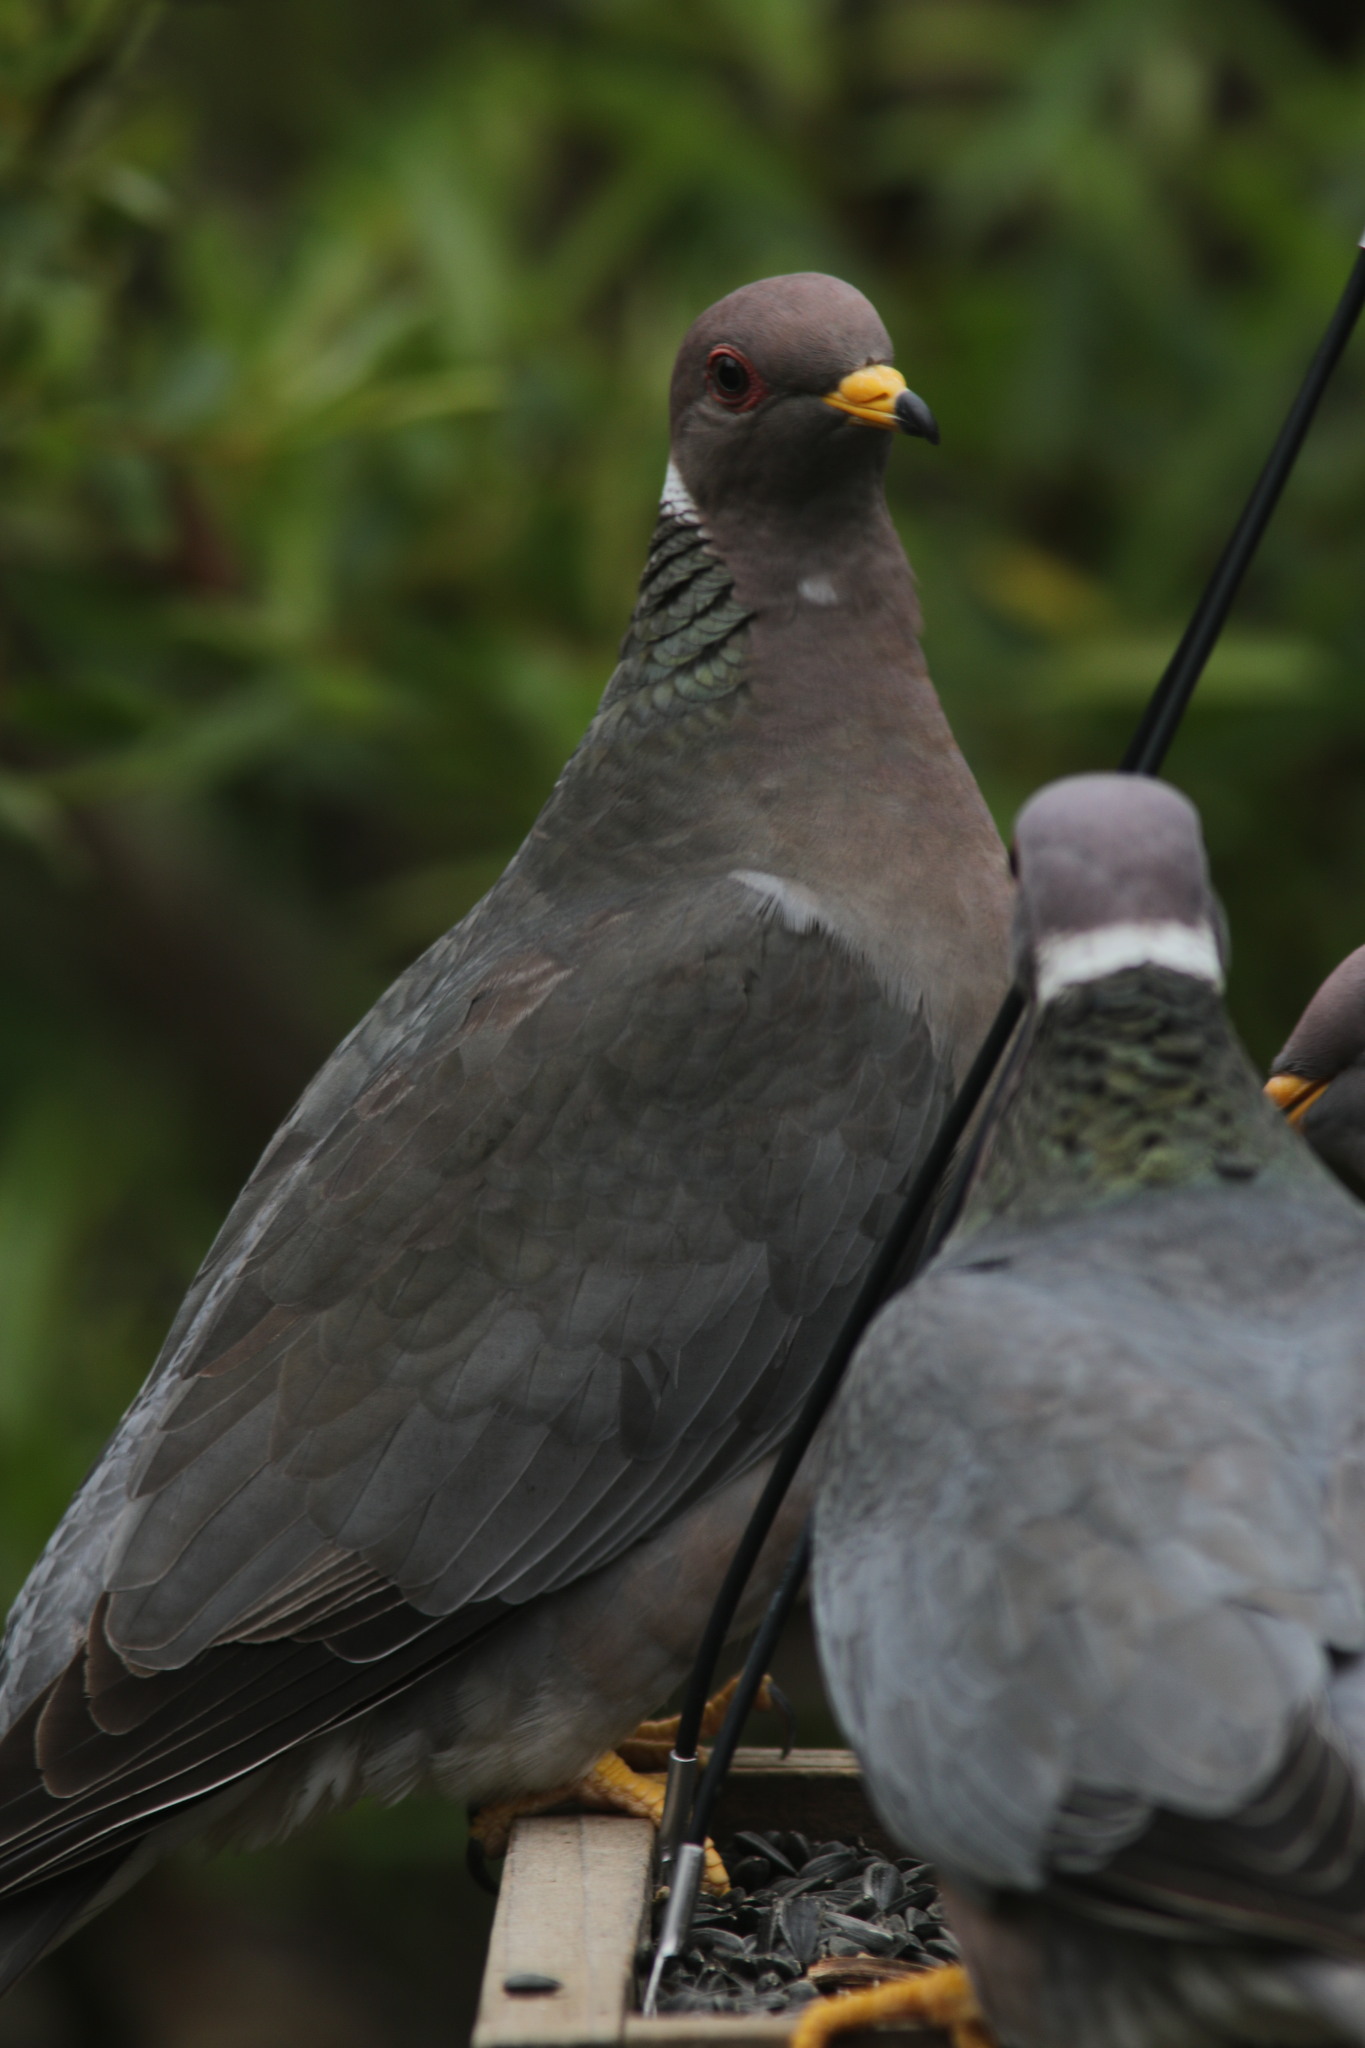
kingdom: Animalia
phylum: Chordata
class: Aves
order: Columbiformes
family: Columbidae
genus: Patagioenas
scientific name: Patagioenas fasciata
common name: Band-tailed pigeon
